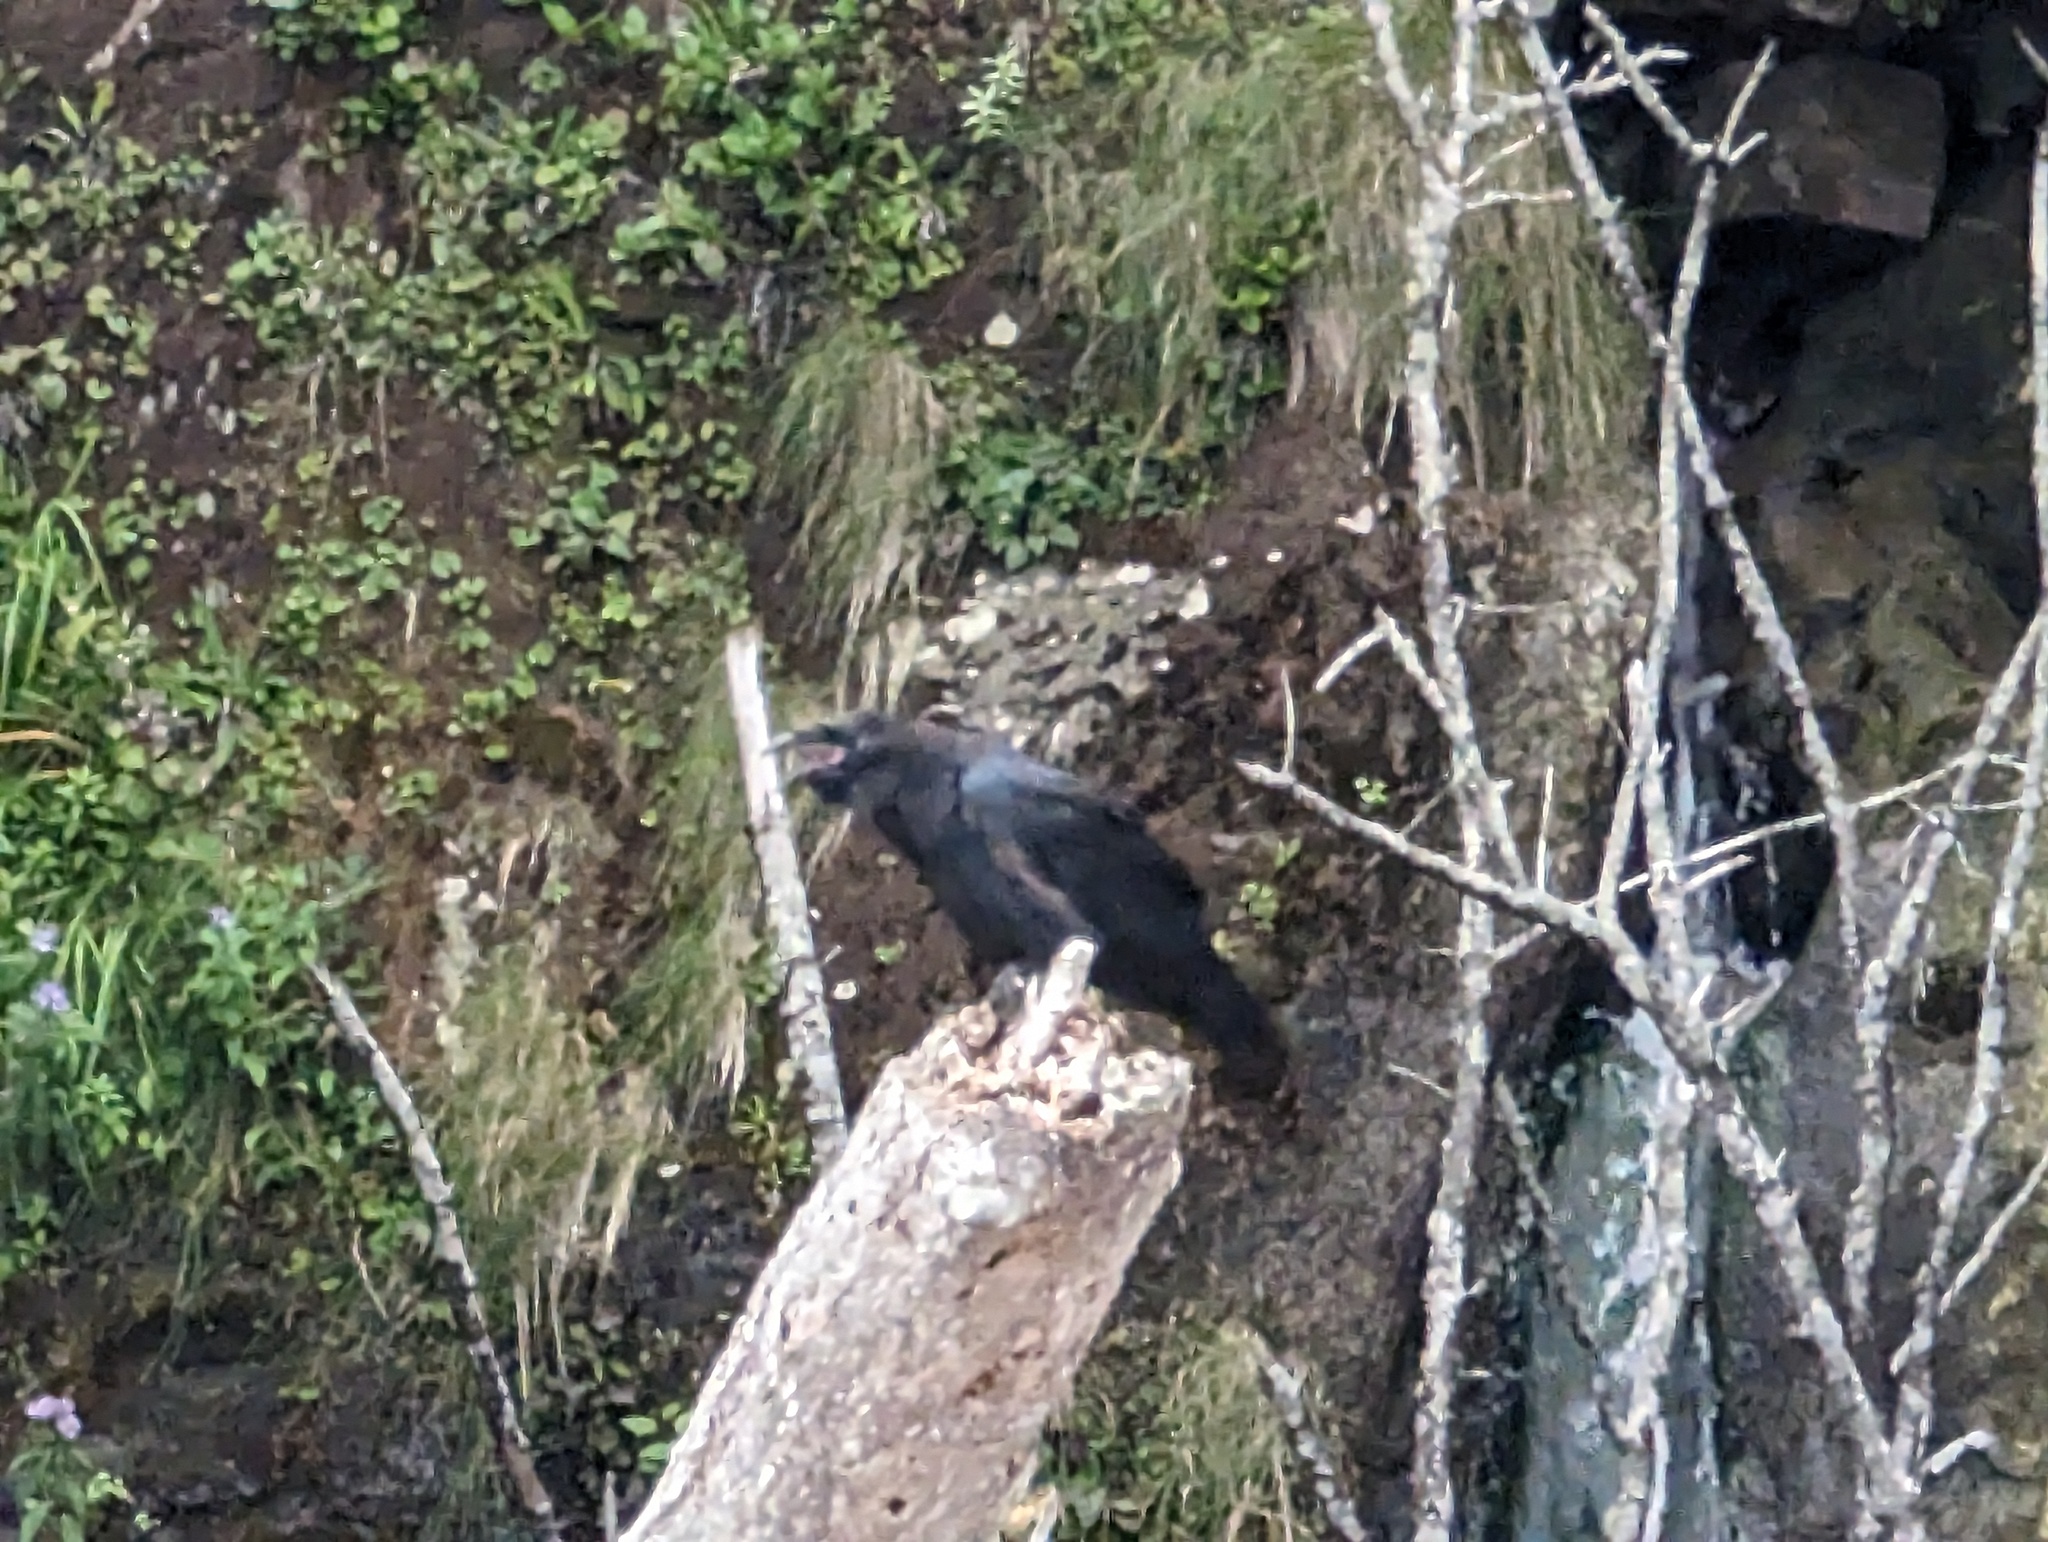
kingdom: Animalia
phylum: Chordata
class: Aves
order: Passeriformes
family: Corvidae
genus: Corvus
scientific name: Corvus corax
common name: Common raven
